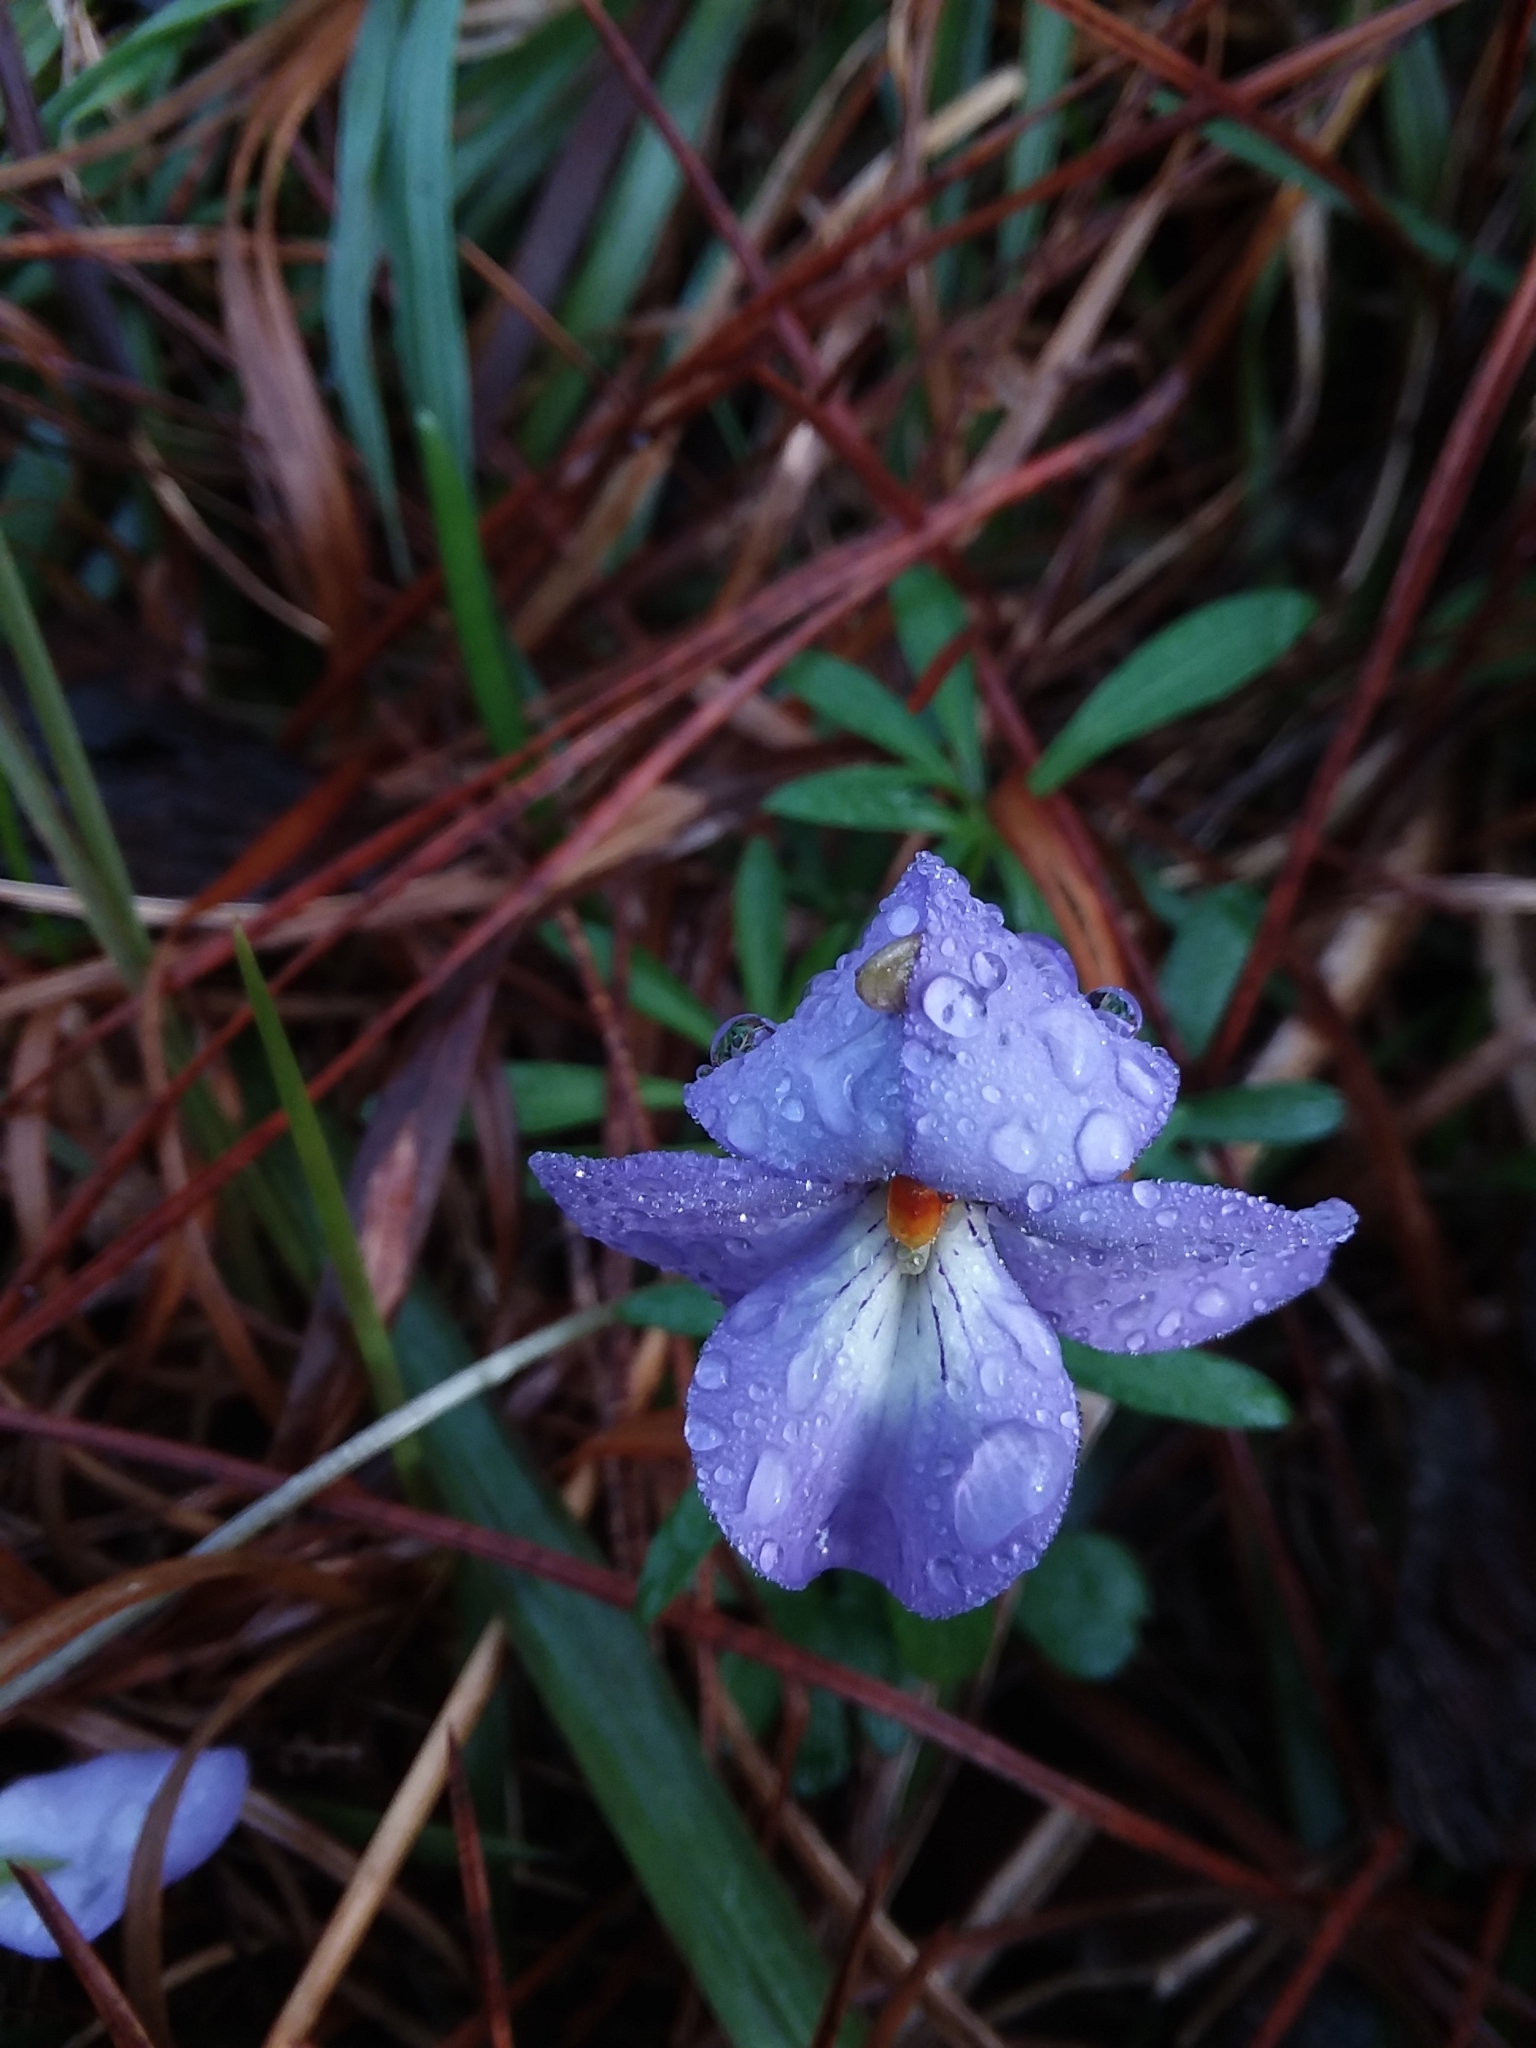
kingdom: Plantae
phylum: Tracheophyta
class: Magnoliopsida
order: Malpighiales
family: Violaceae
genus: Viola
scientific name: Viola pedata
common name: Pansy violet
